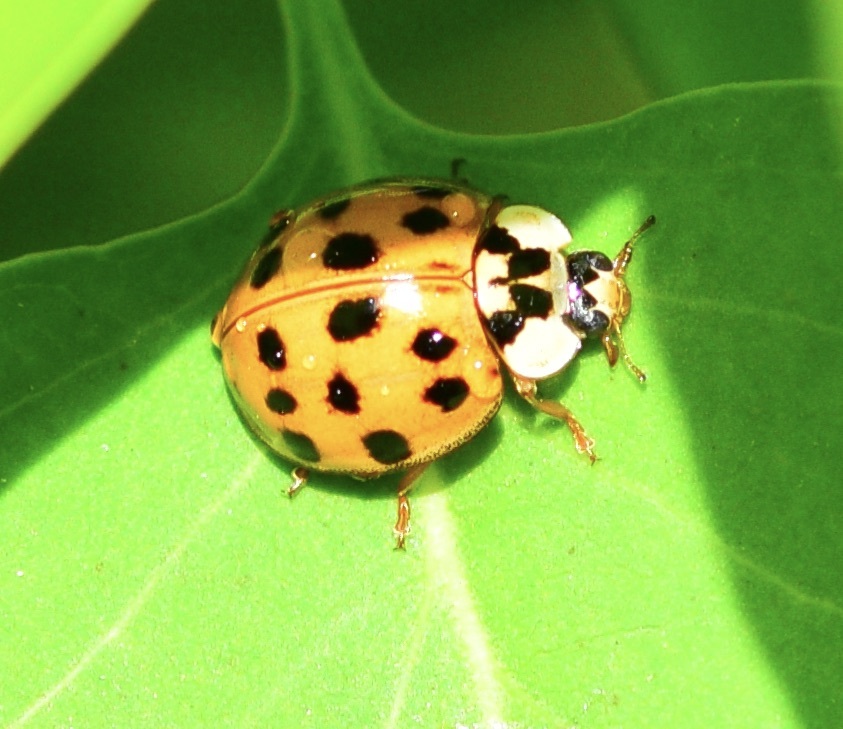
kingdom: Animalia
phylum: Arthropoda
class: Insecta
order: Coleoptera
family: Coccinellidae
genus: Harmonia
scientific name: Harmonia axyridis
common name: Harlequin ladybird
